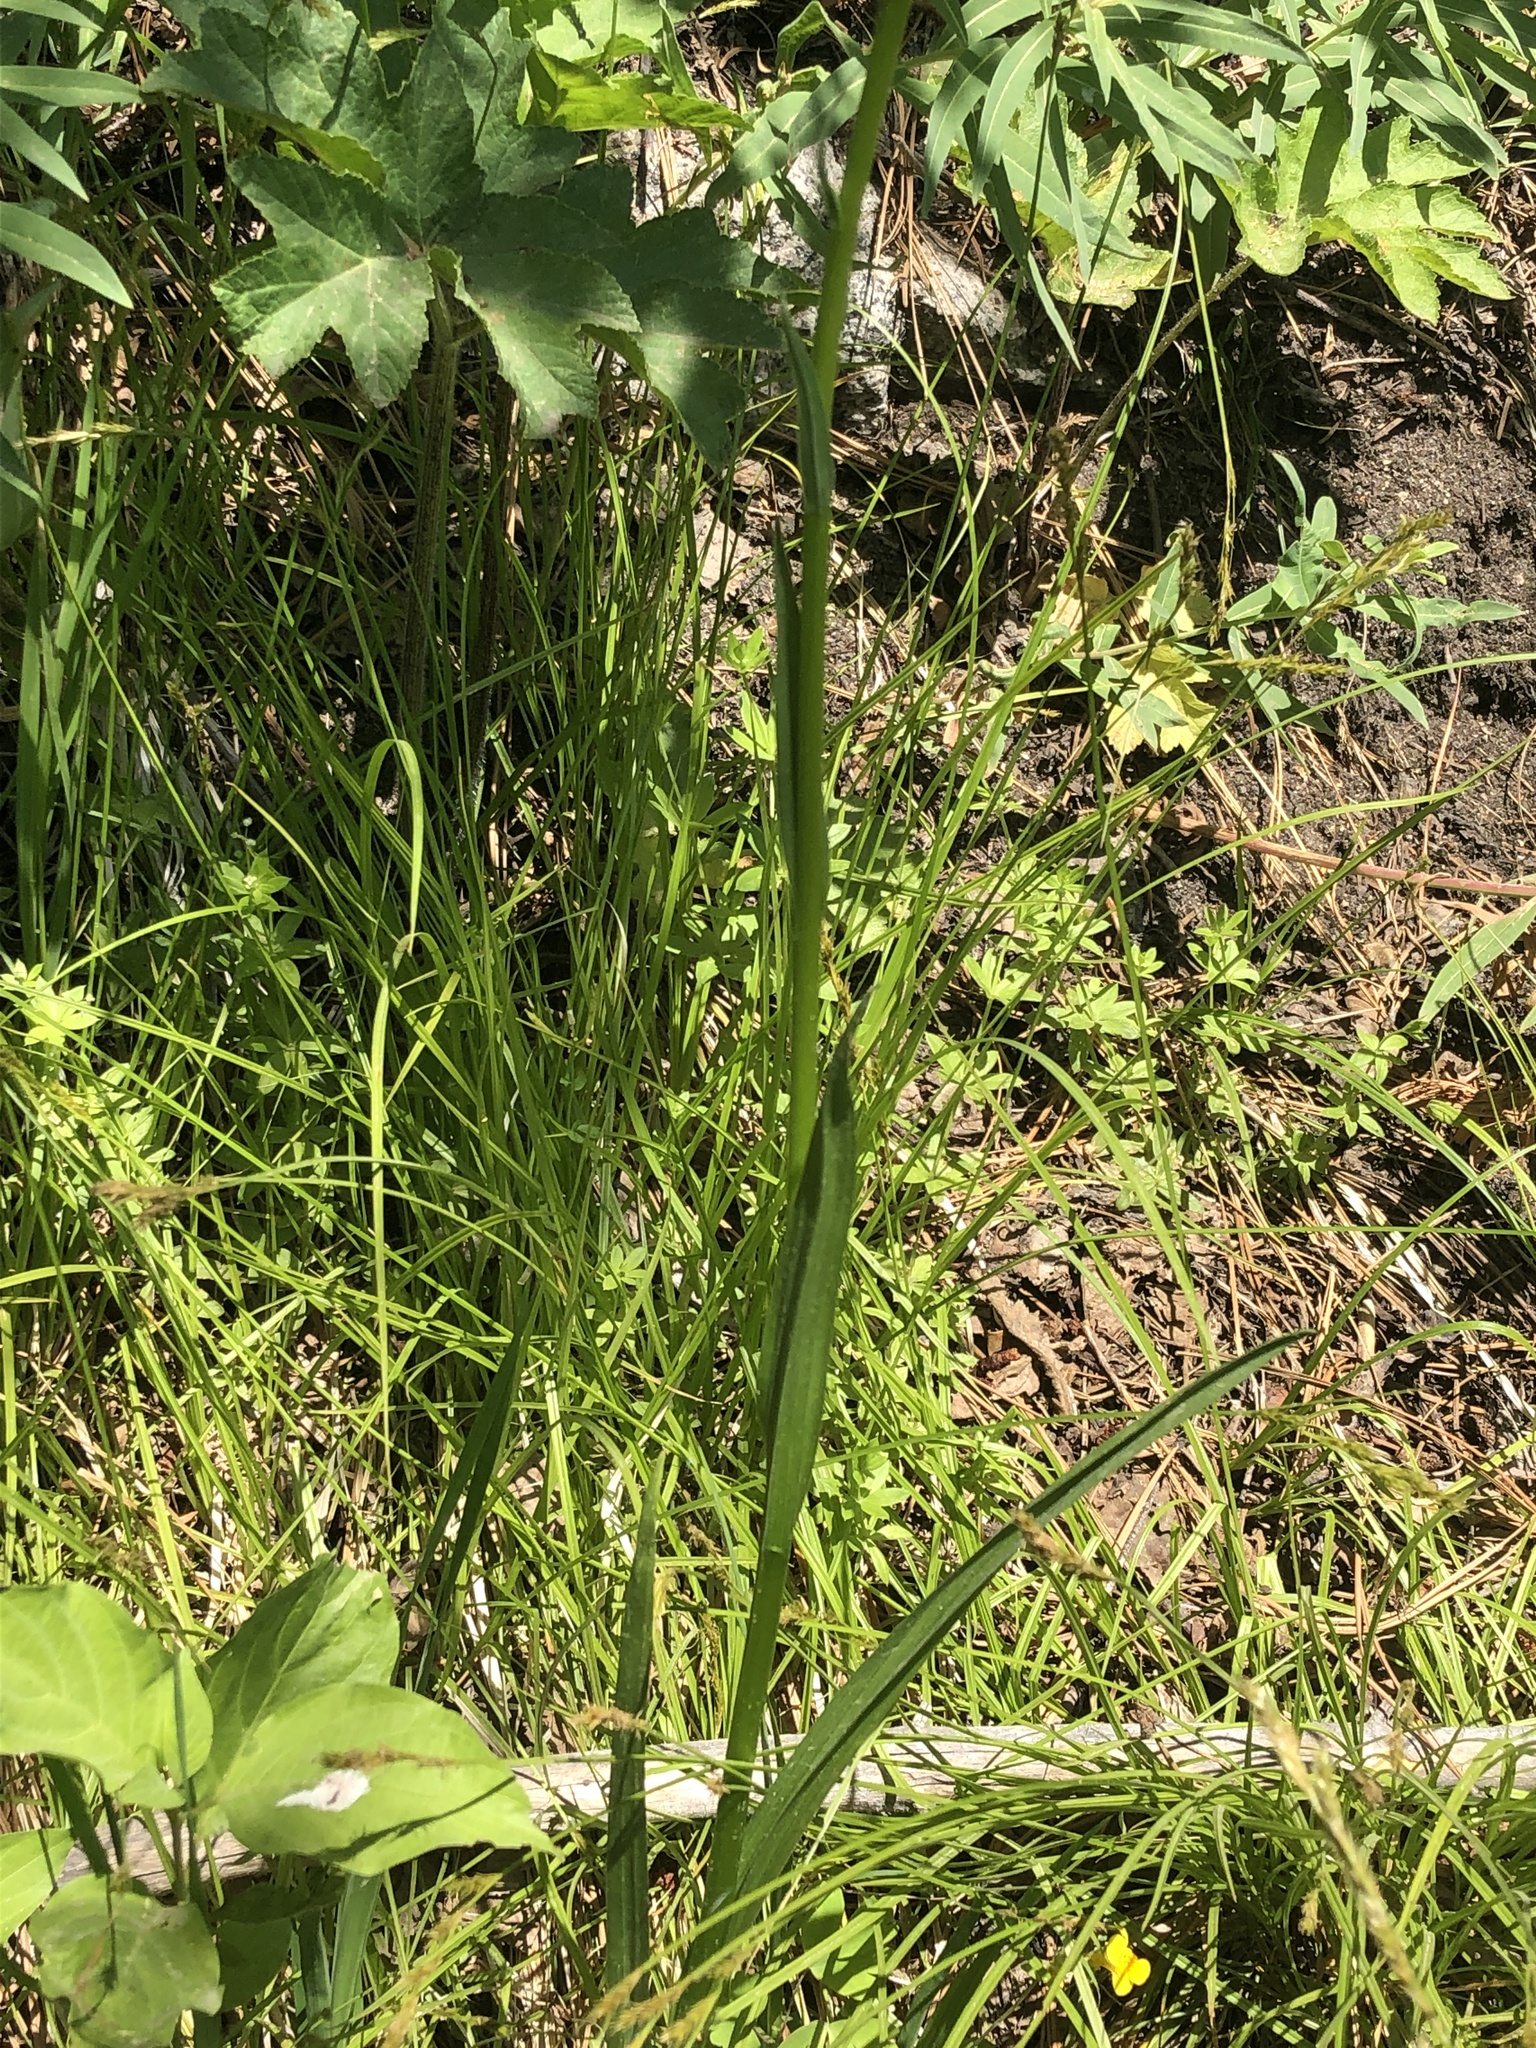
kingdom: Plantae
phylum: Tracheophyta
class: Liliopsida
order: Asparagales
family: Orchidaceae
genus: Platanthera
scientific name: Platanthera dilatata
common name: Bog candles
